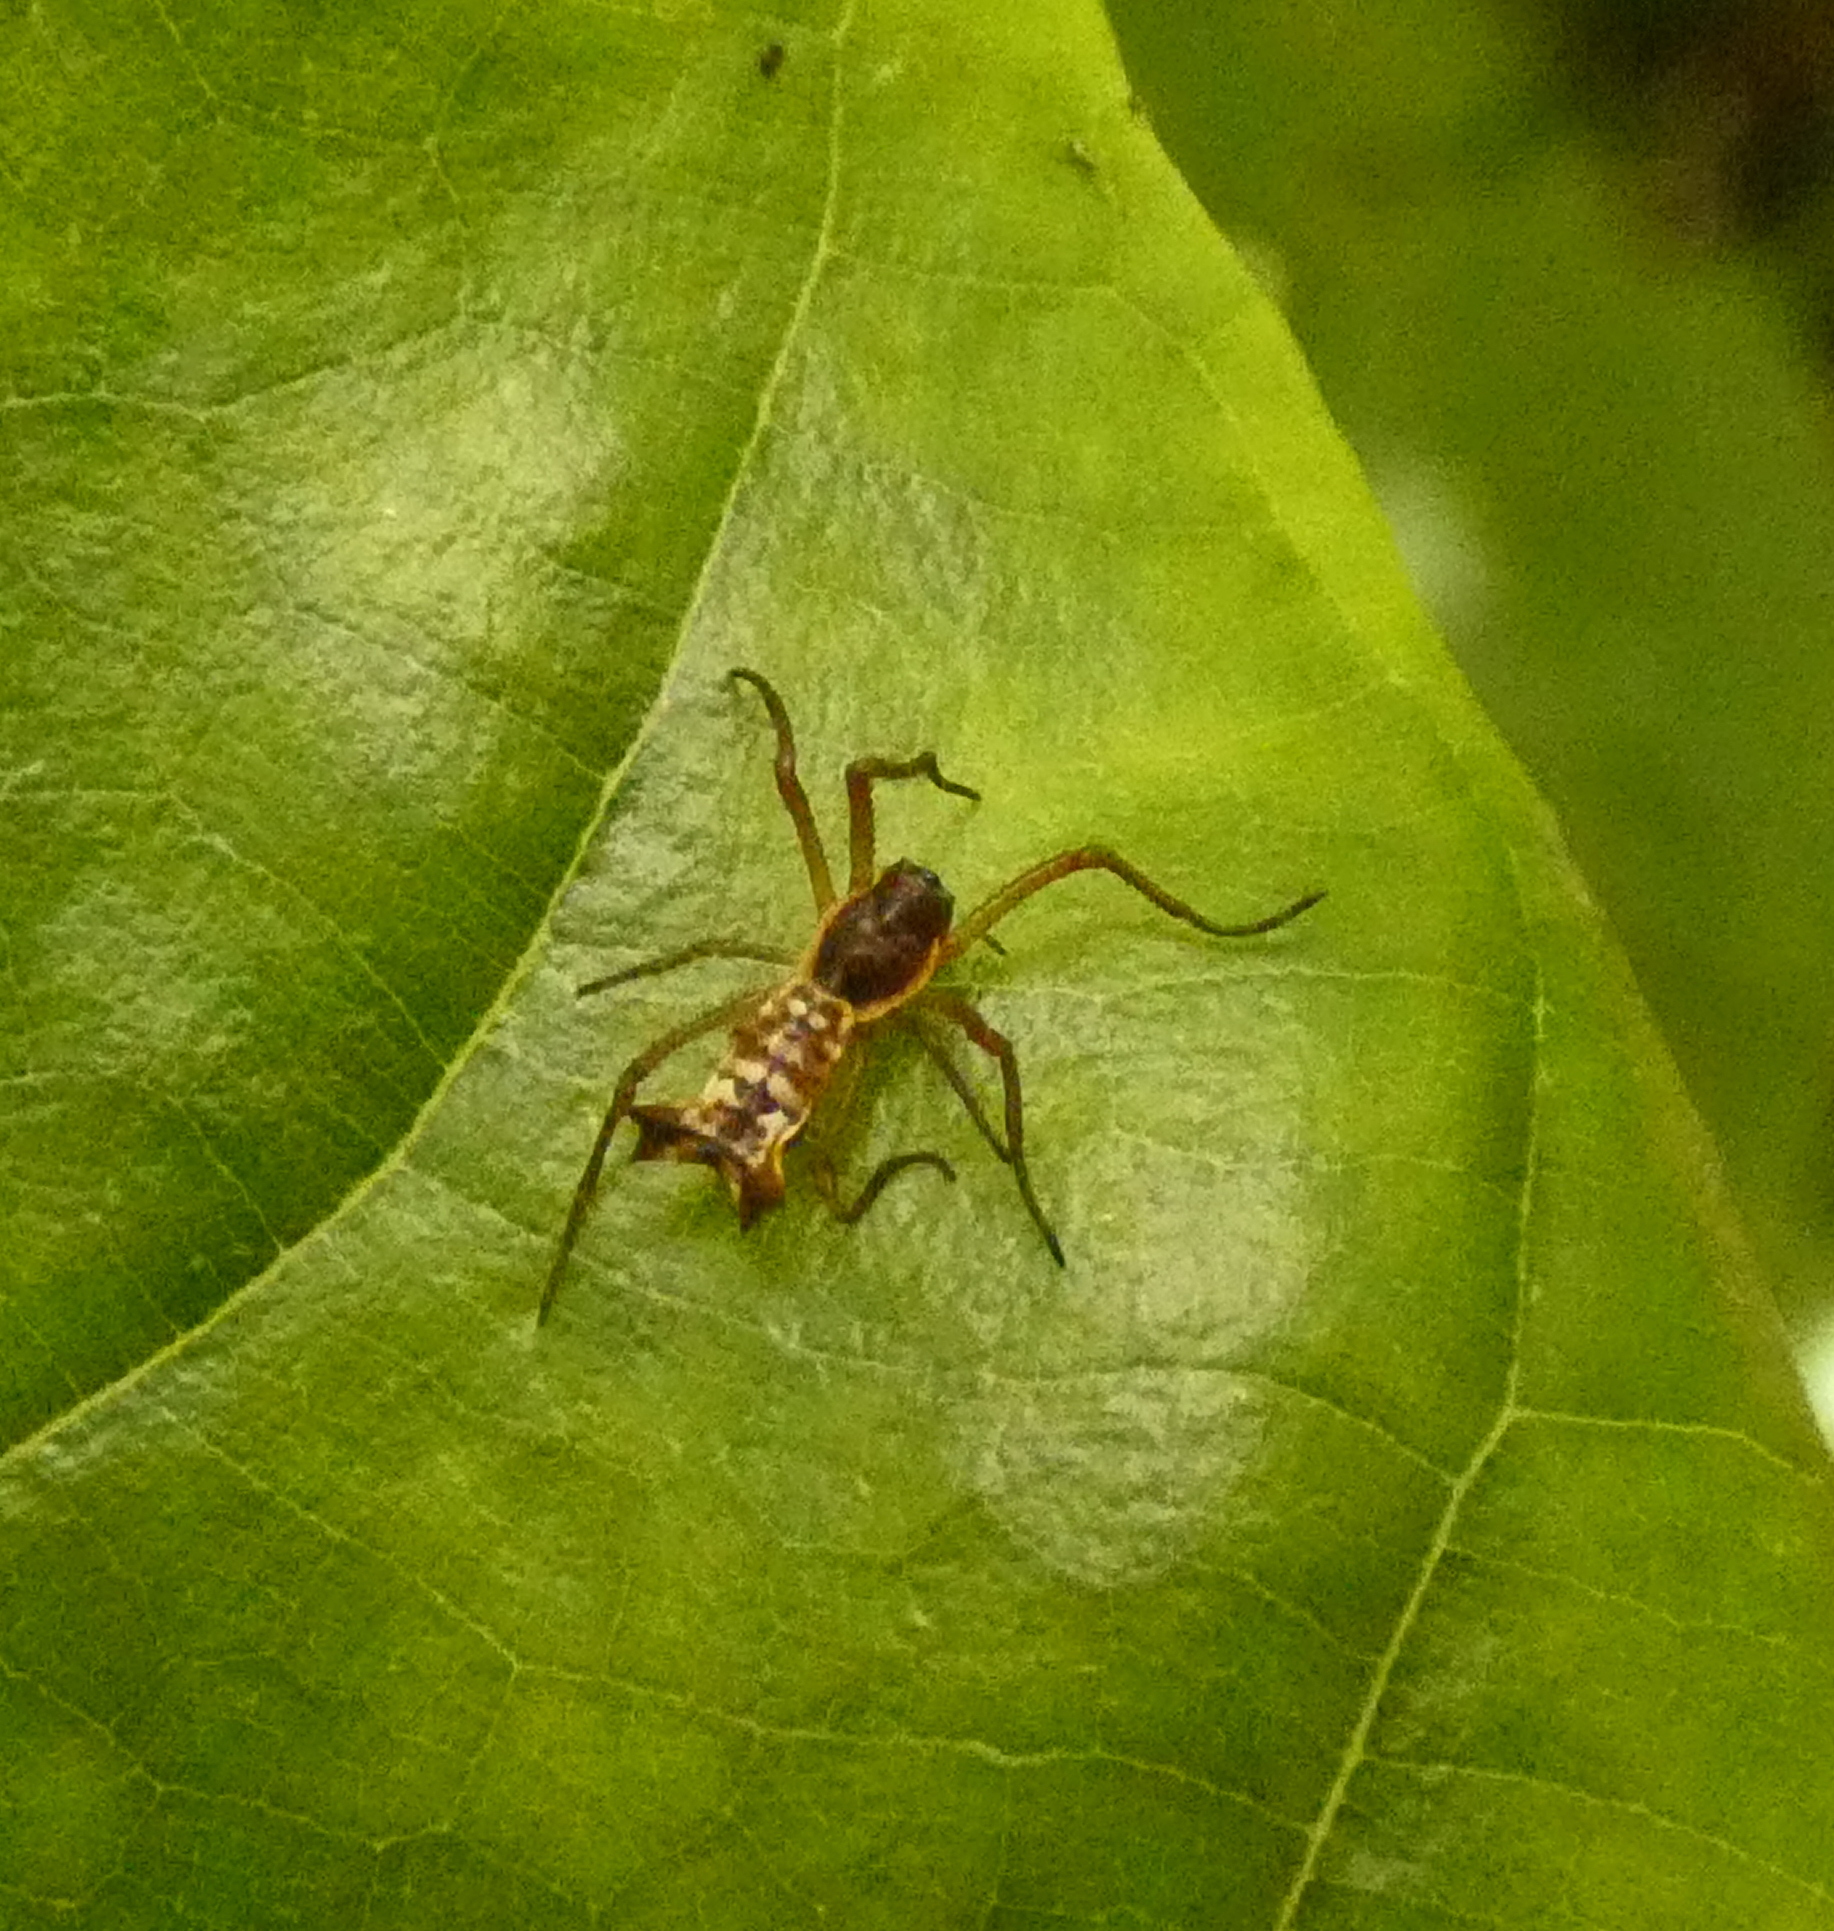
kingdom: Animalia
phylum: Arthropoda
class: Arachnida
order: Araneae
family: Araneidae
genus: Micrathena
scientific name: Micrathena fissispina
